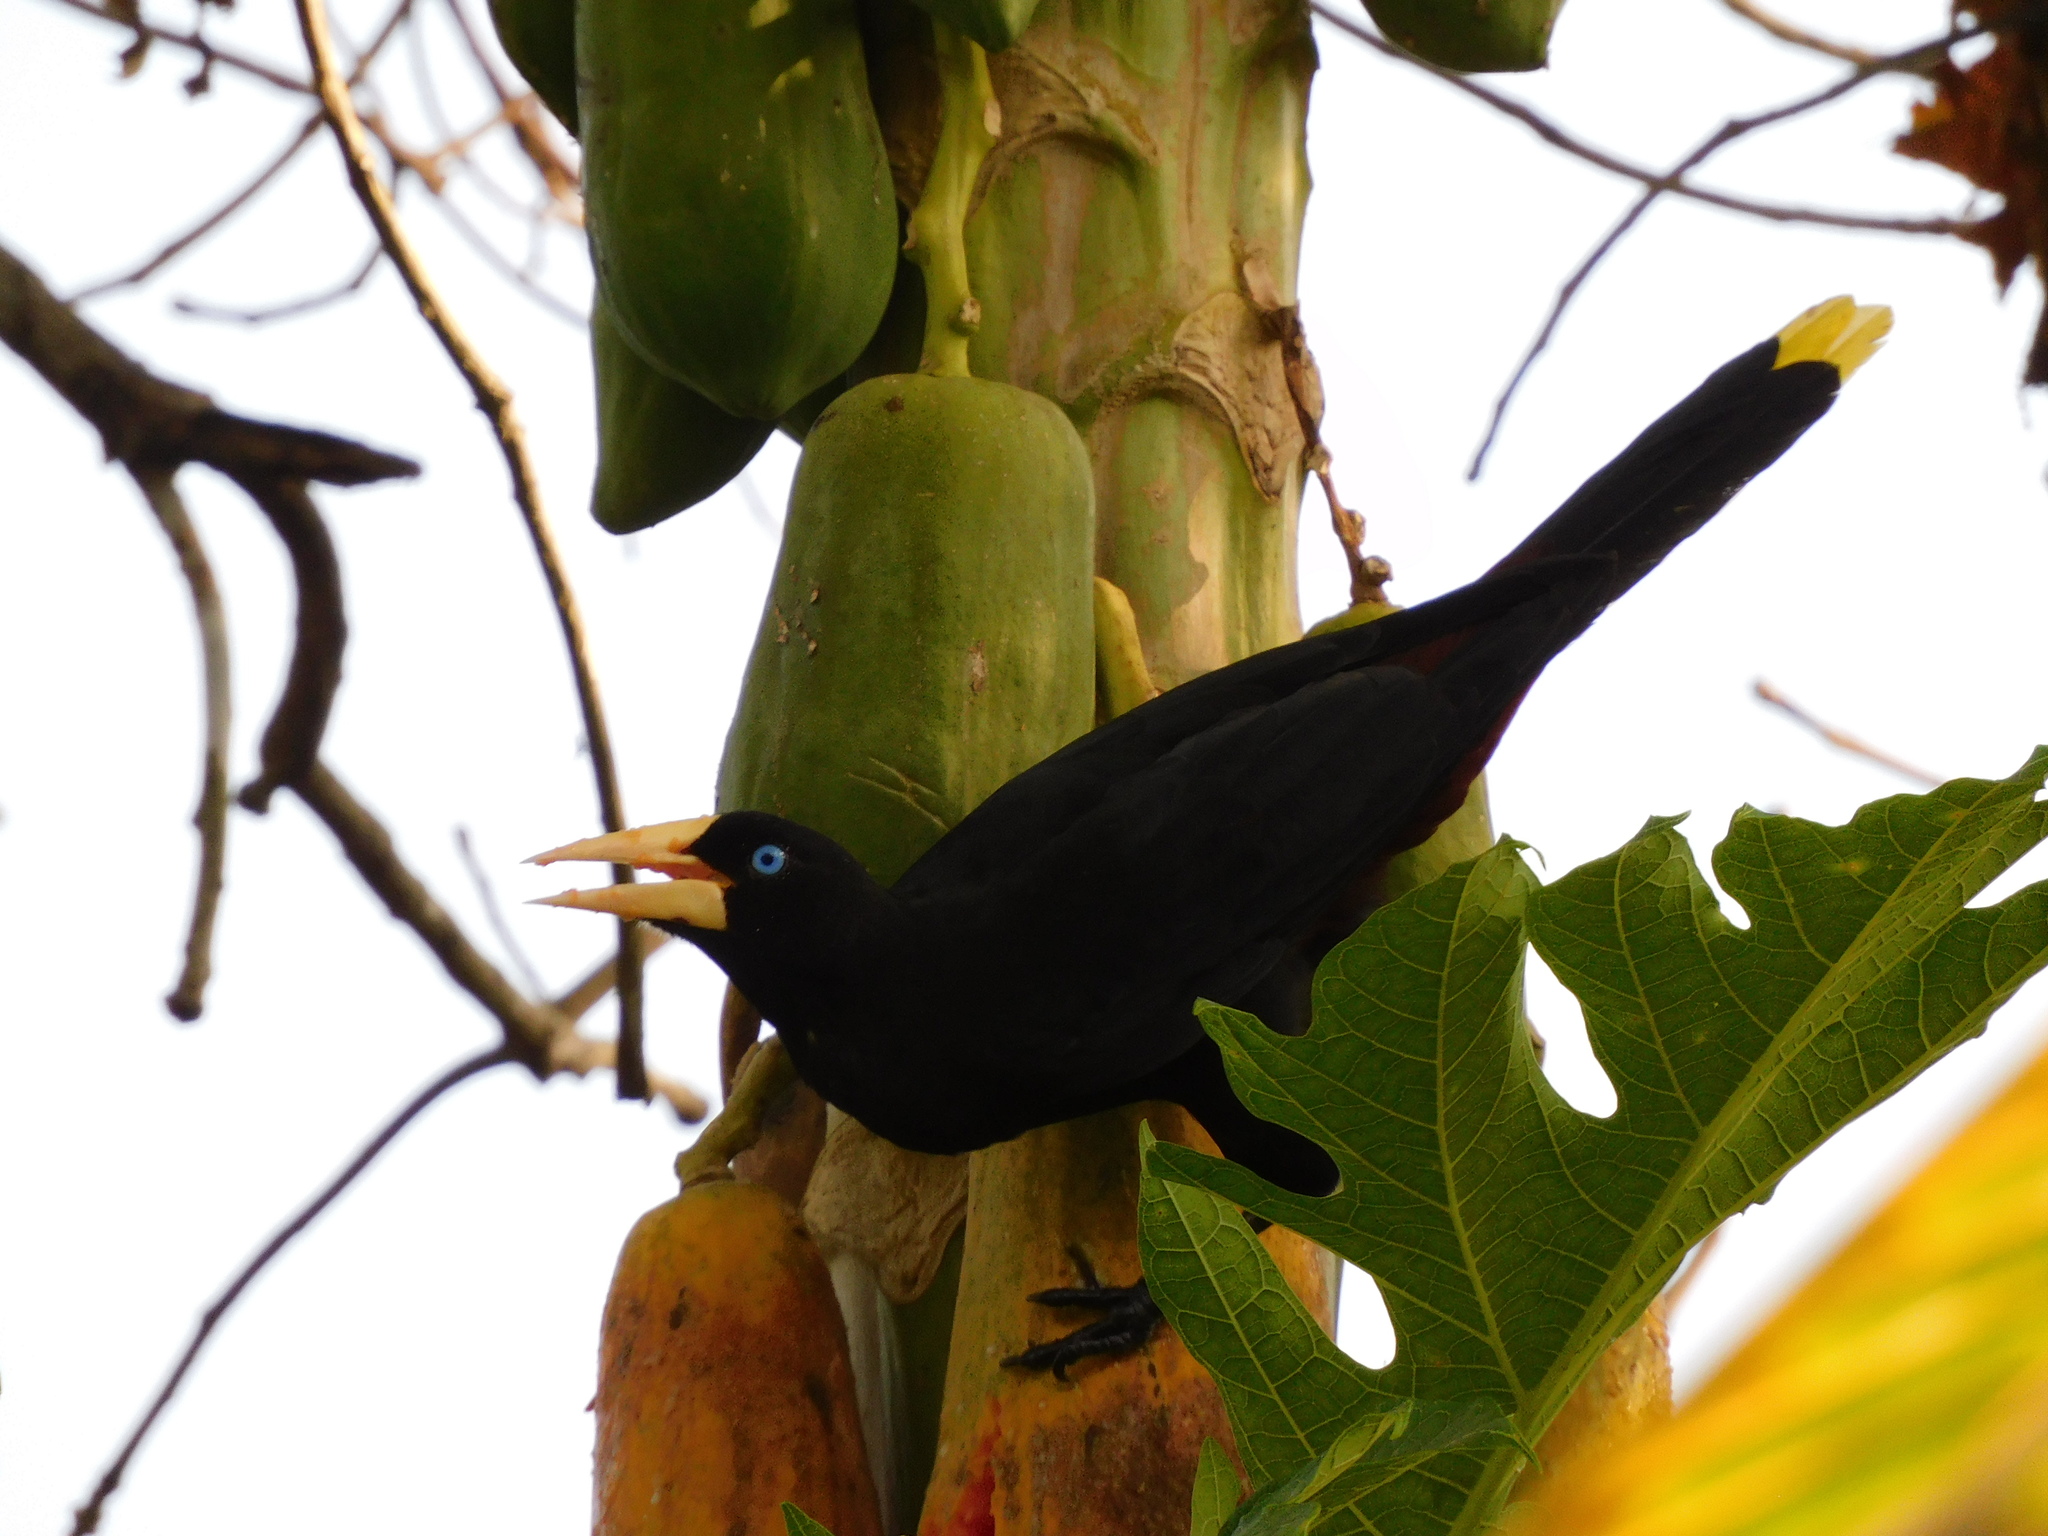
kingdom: Animalia
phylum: Chordata
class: Aves
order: Passeriformes
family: Icteridae
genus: Psarocolius
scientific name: Psarocolius decumanus
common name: Crested oropendola
